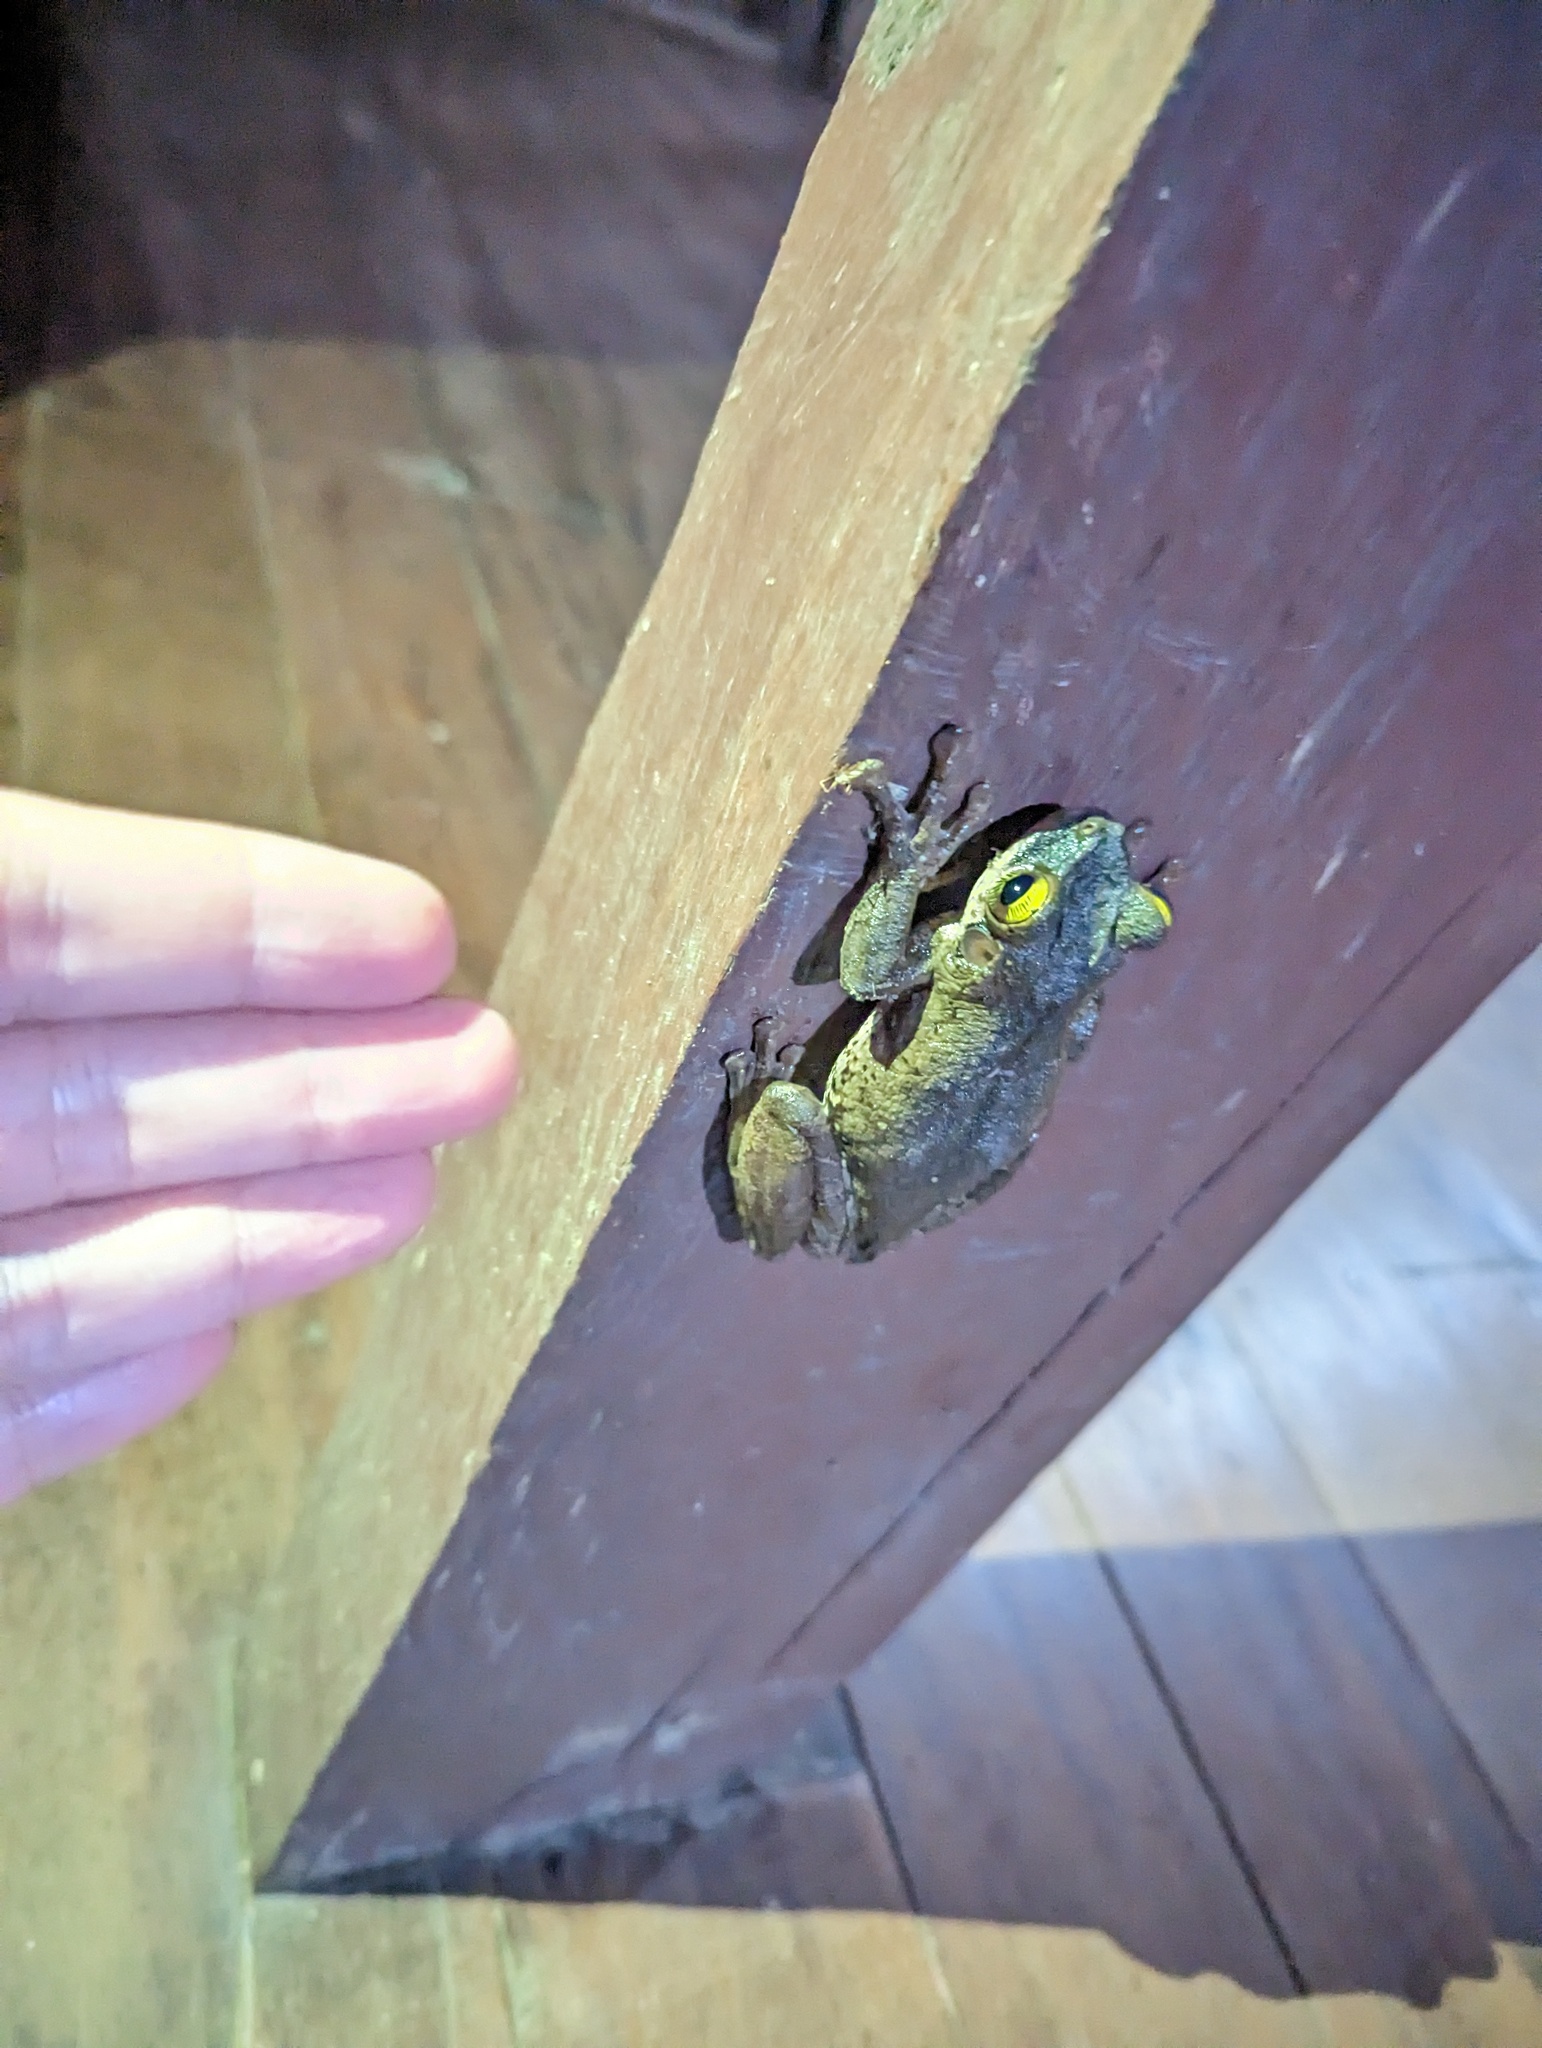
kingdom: Animalia
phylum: Chordata
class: Amphibia
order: Anura
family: Hylidae
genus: Osteocephalus
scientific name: Osteocephalus taurinus
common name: Manaus slender-legged treefrog
